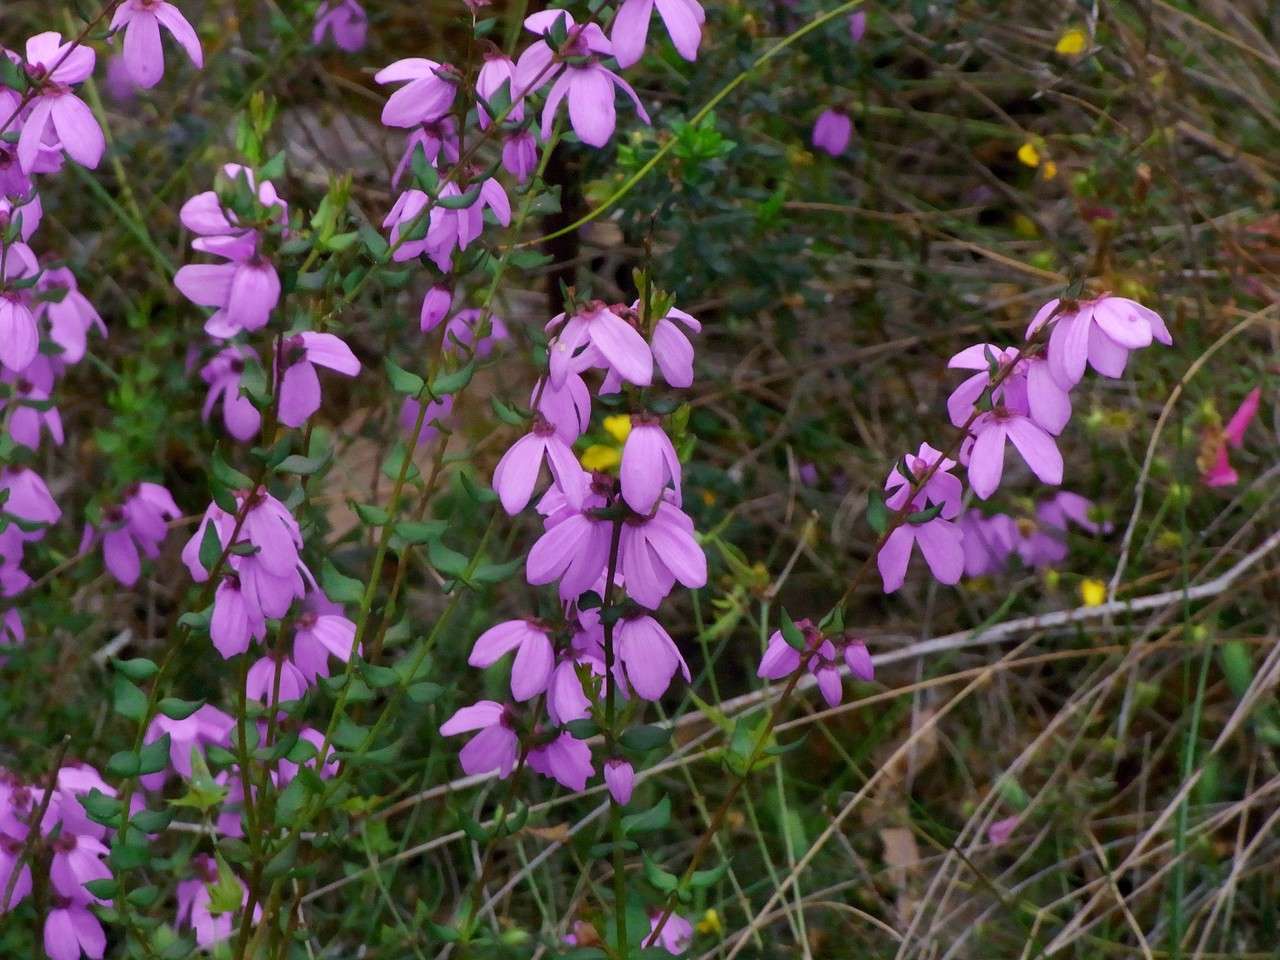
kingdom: Plantae
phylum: Tracheophyta
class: Magnoliopsida
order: Oxalidales
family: Elaeocarpaceae
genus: Tetratheca
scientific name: Tetratheca ciliata
